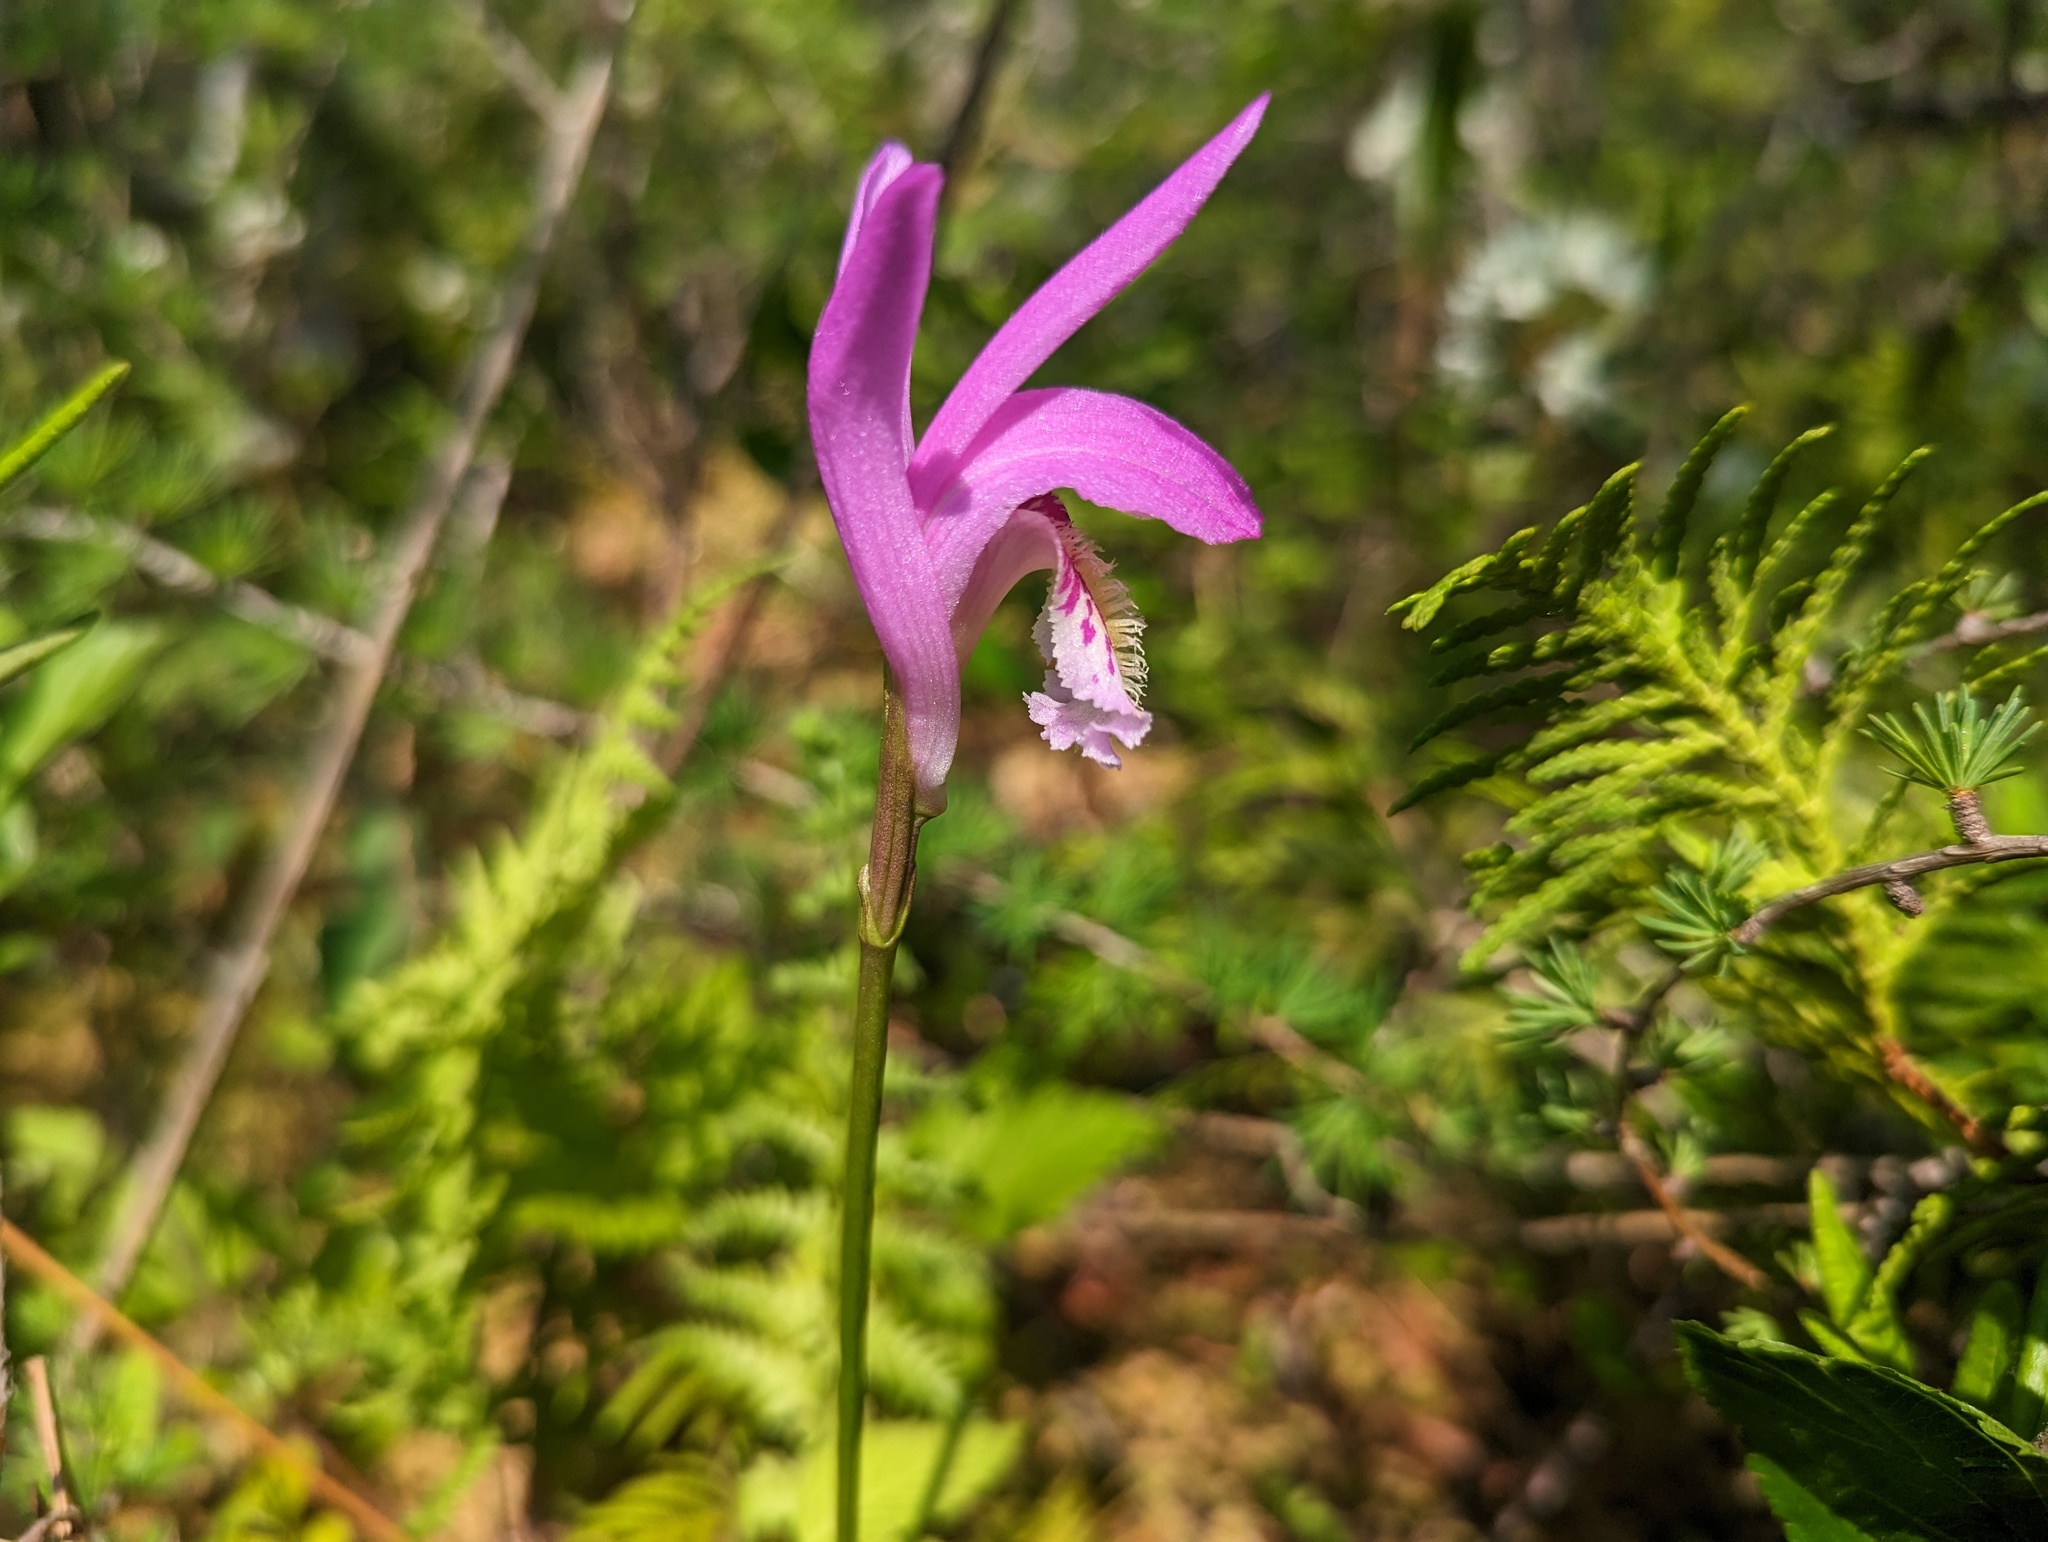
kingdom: Plantae
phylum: Tracheophyta
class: Liliopsida
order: Asparagales
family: Orchidaceae
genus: Arethusa
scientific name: Arethusa bulbosa
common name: Arethusa
